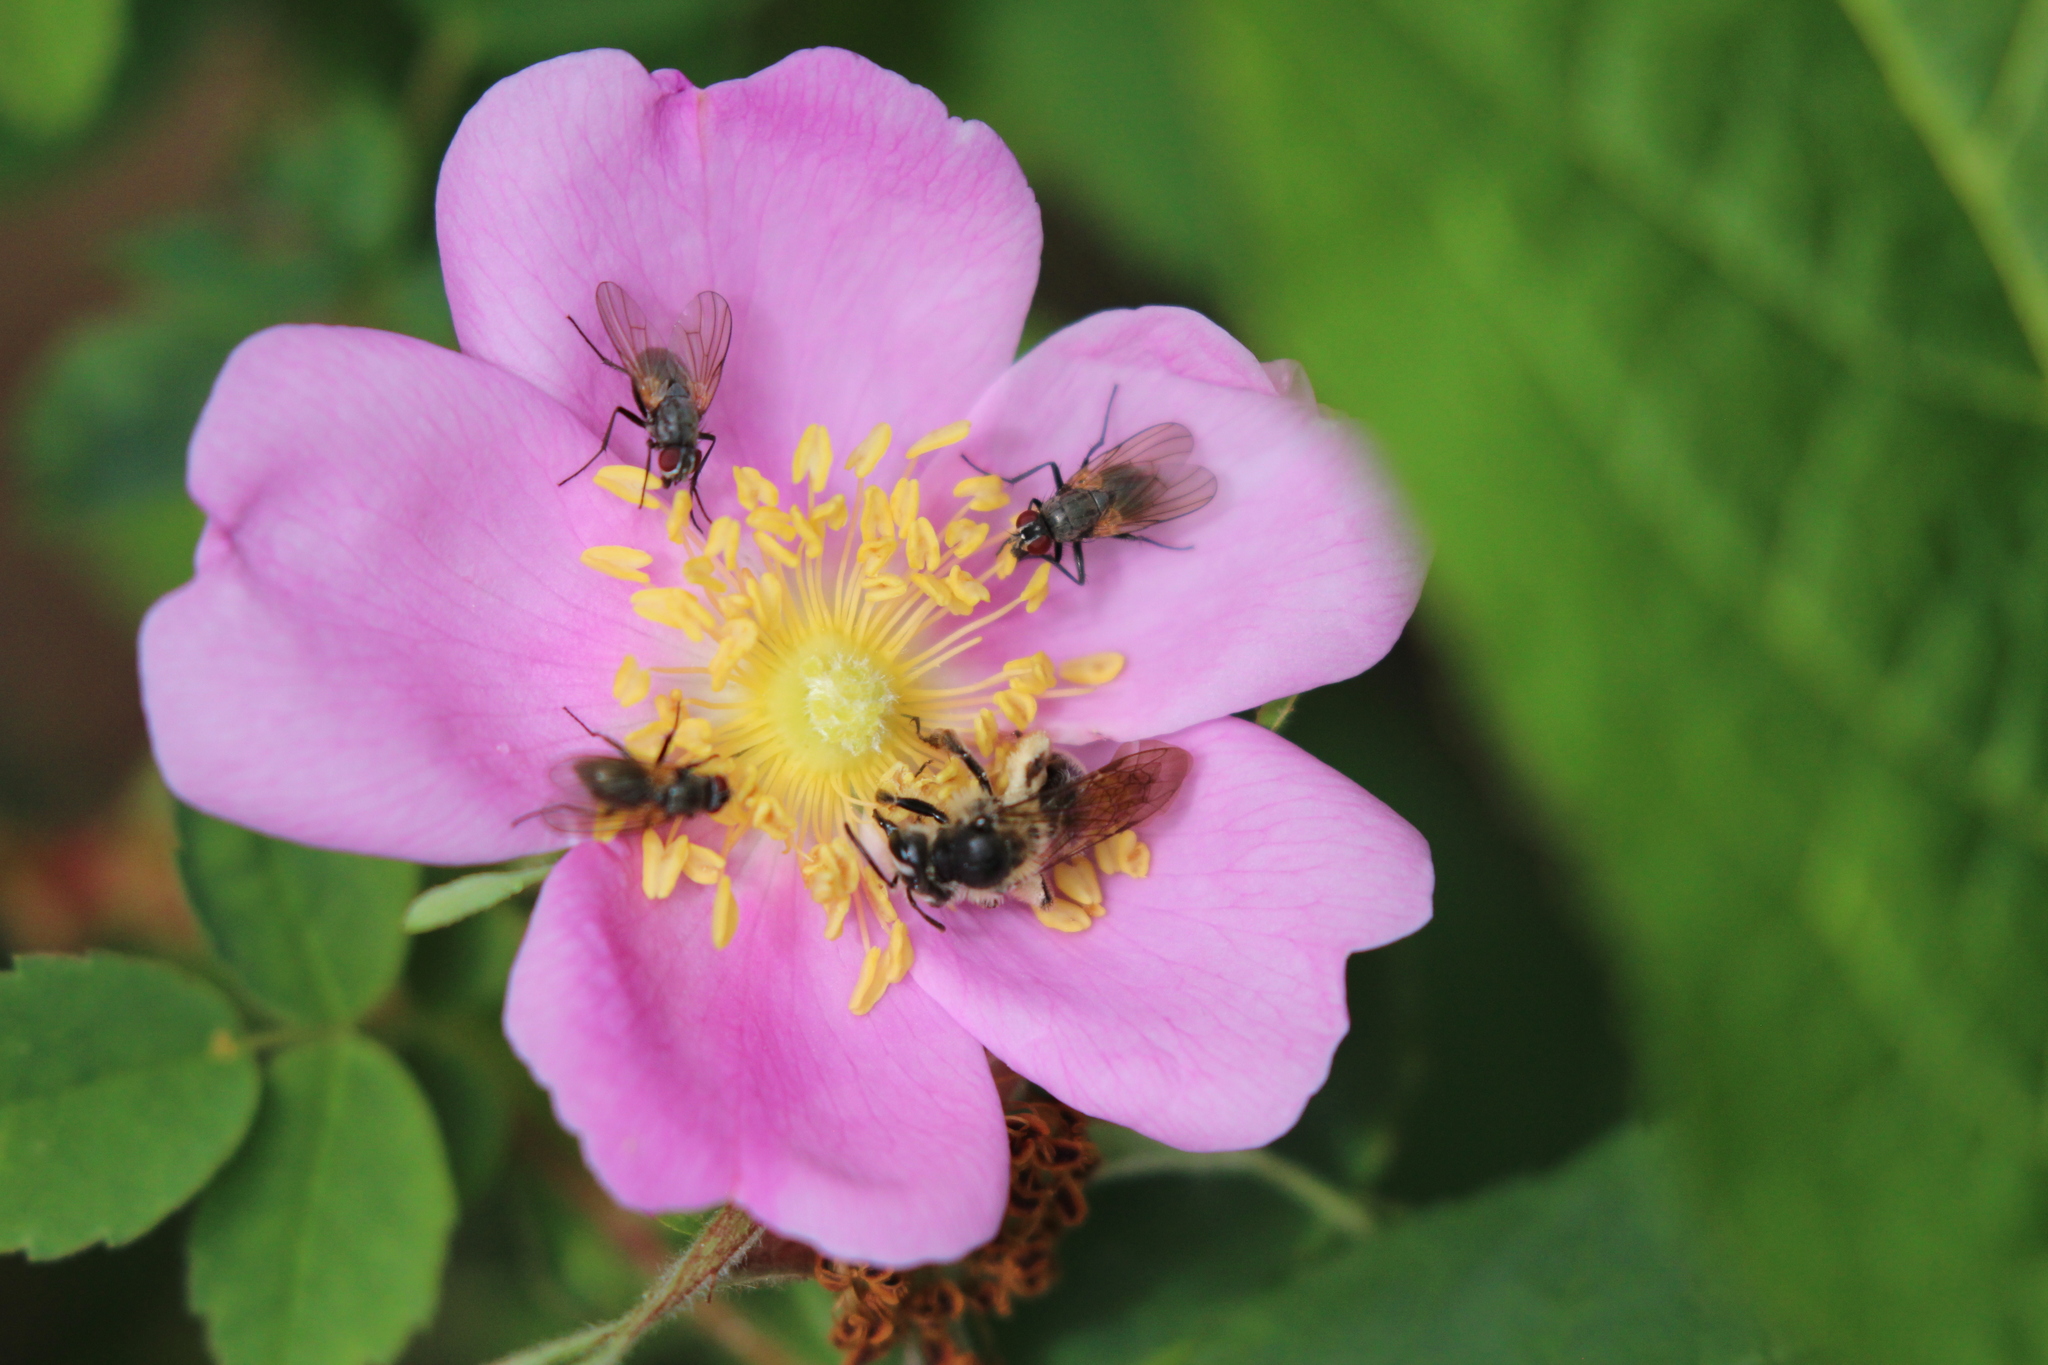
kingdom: Plantae
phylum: Tracheophyta
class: Magnoliopsida
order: Rosales
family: Rosaceae
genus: Rosa
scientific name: Rosa acicularis
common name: Prickly rose
